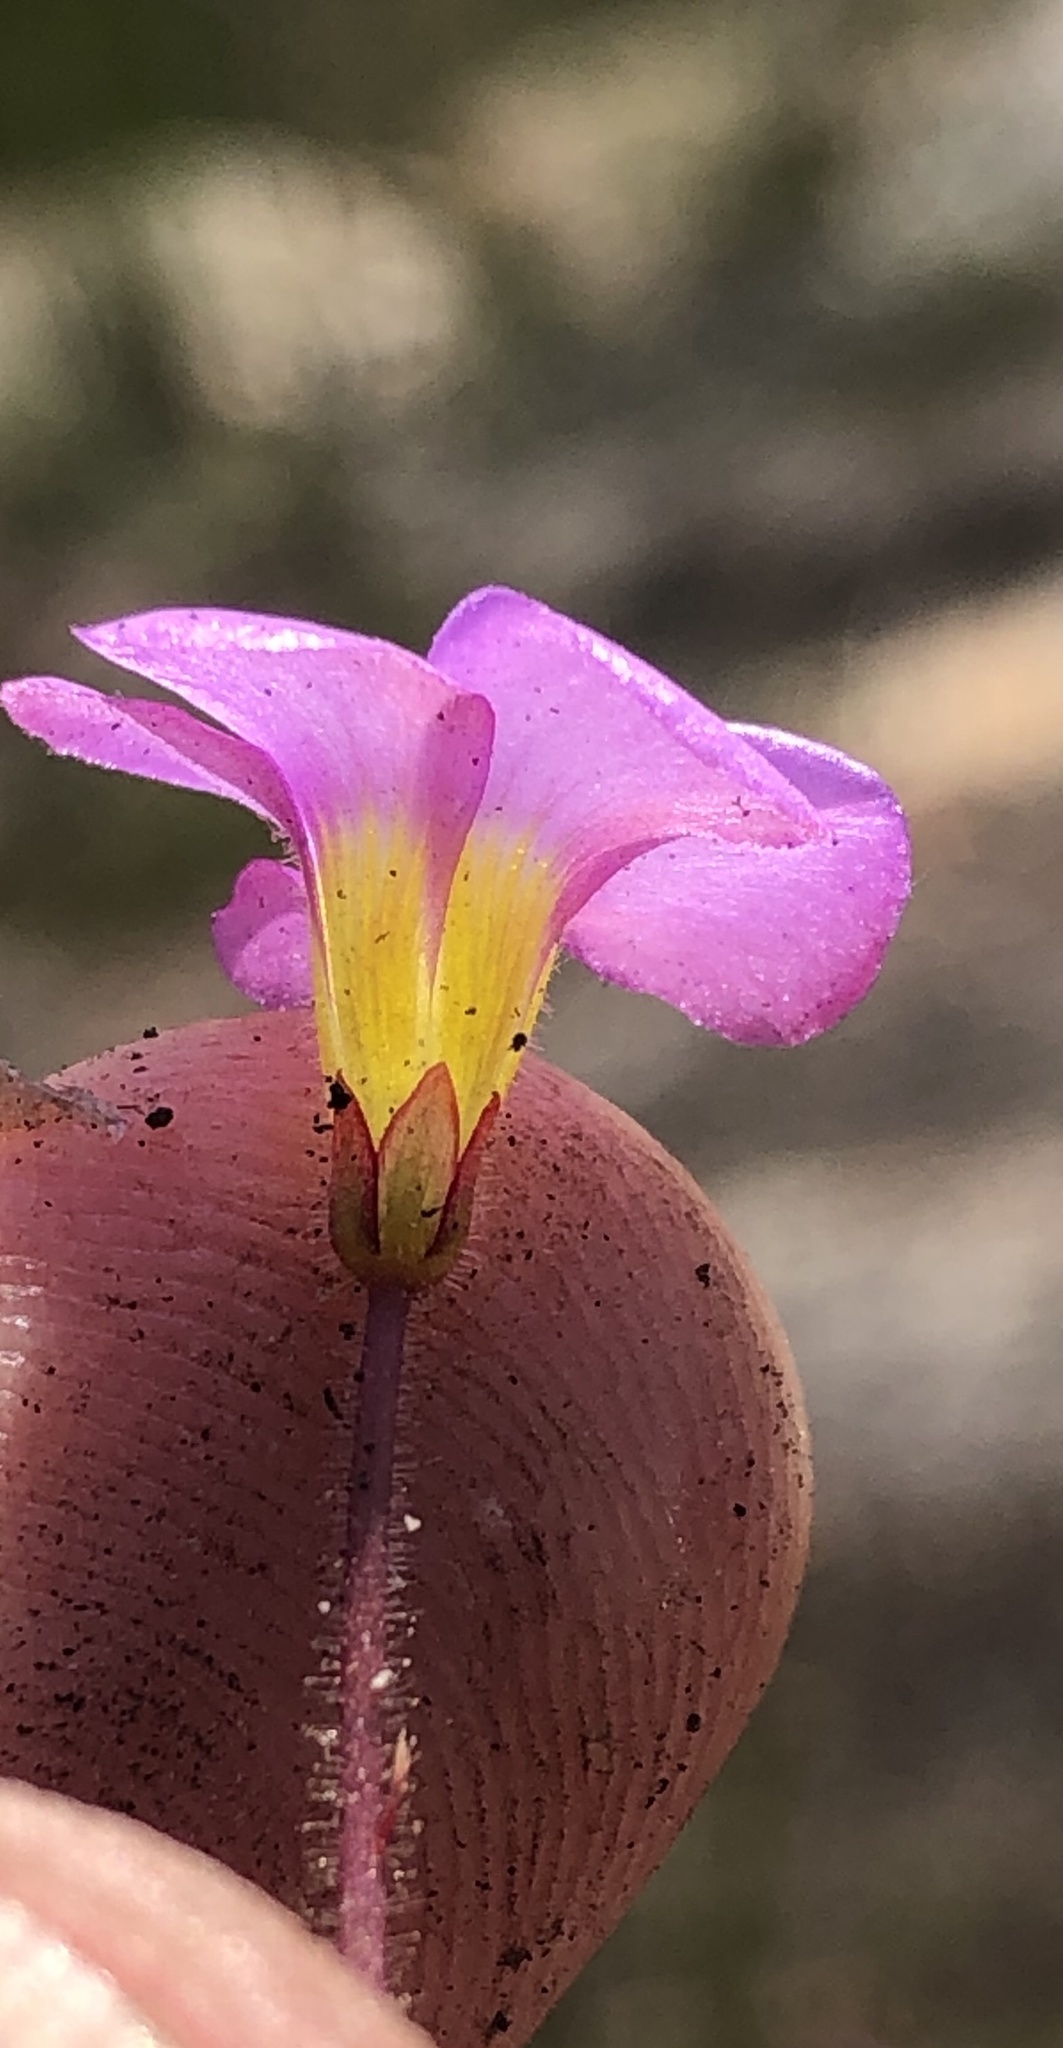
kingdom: Plantae
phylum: Tracheophyta
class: Magnoliopsida
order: Oxalidales
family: Oxalidaceae
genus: Oxalis
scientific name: Oxalis punctata
